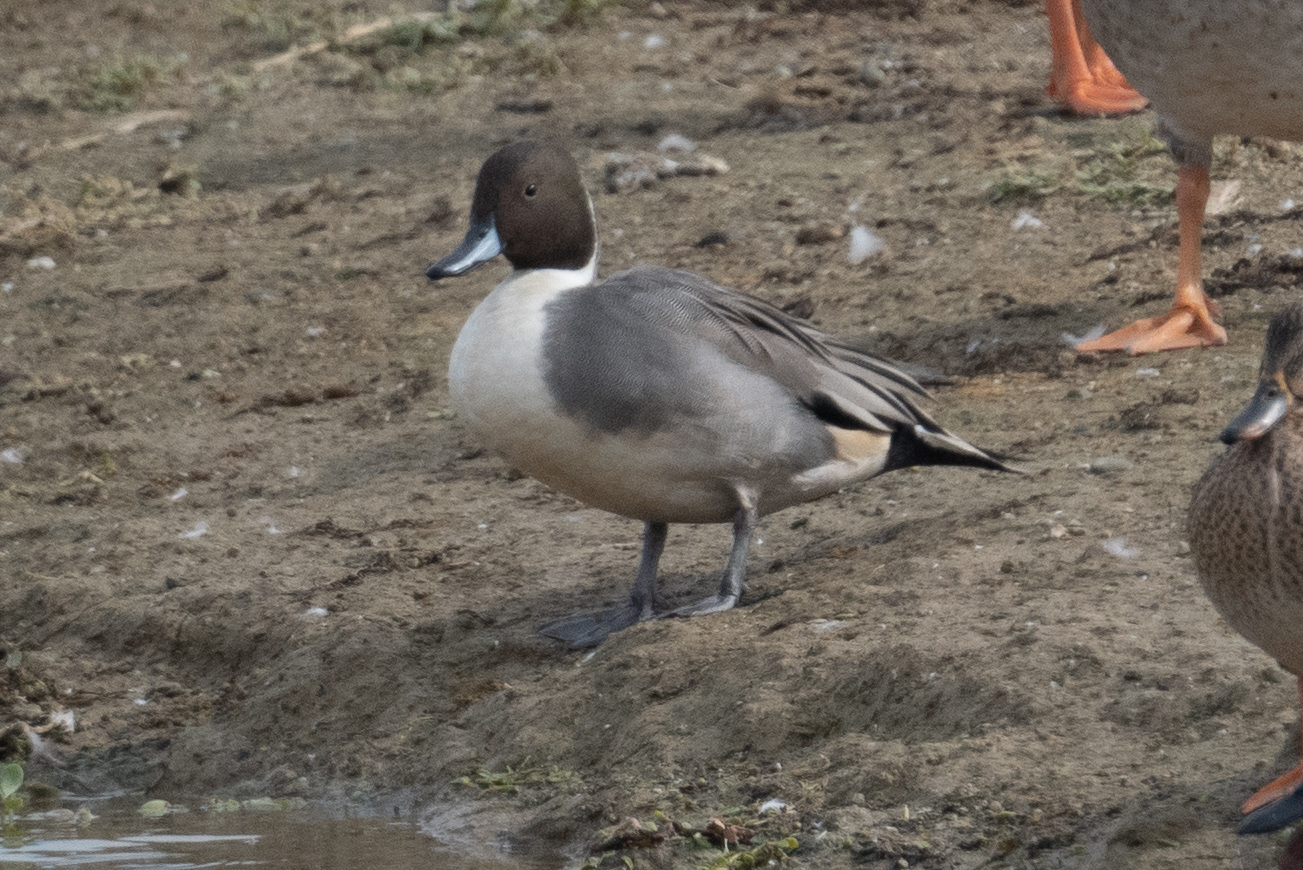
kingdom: Animalia
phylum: Chordata
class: Aves
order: Anseriformes
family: Anatidae
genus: Anas
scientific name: Anas acuta
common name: Northern pintail
